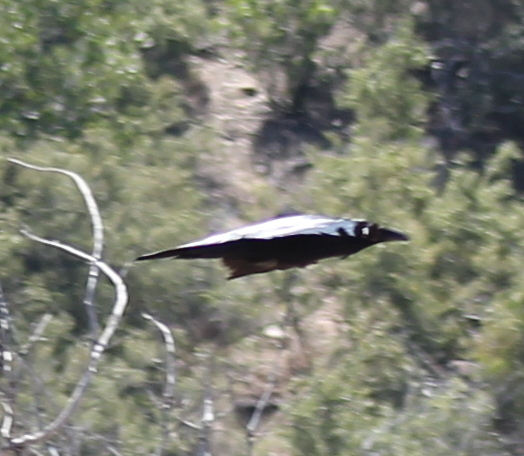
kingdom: Animalia
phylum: Chordata
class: Aves
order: Passeriformes
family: Corvidae
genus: Corvus
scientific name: Corvus corax
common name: Common raven
